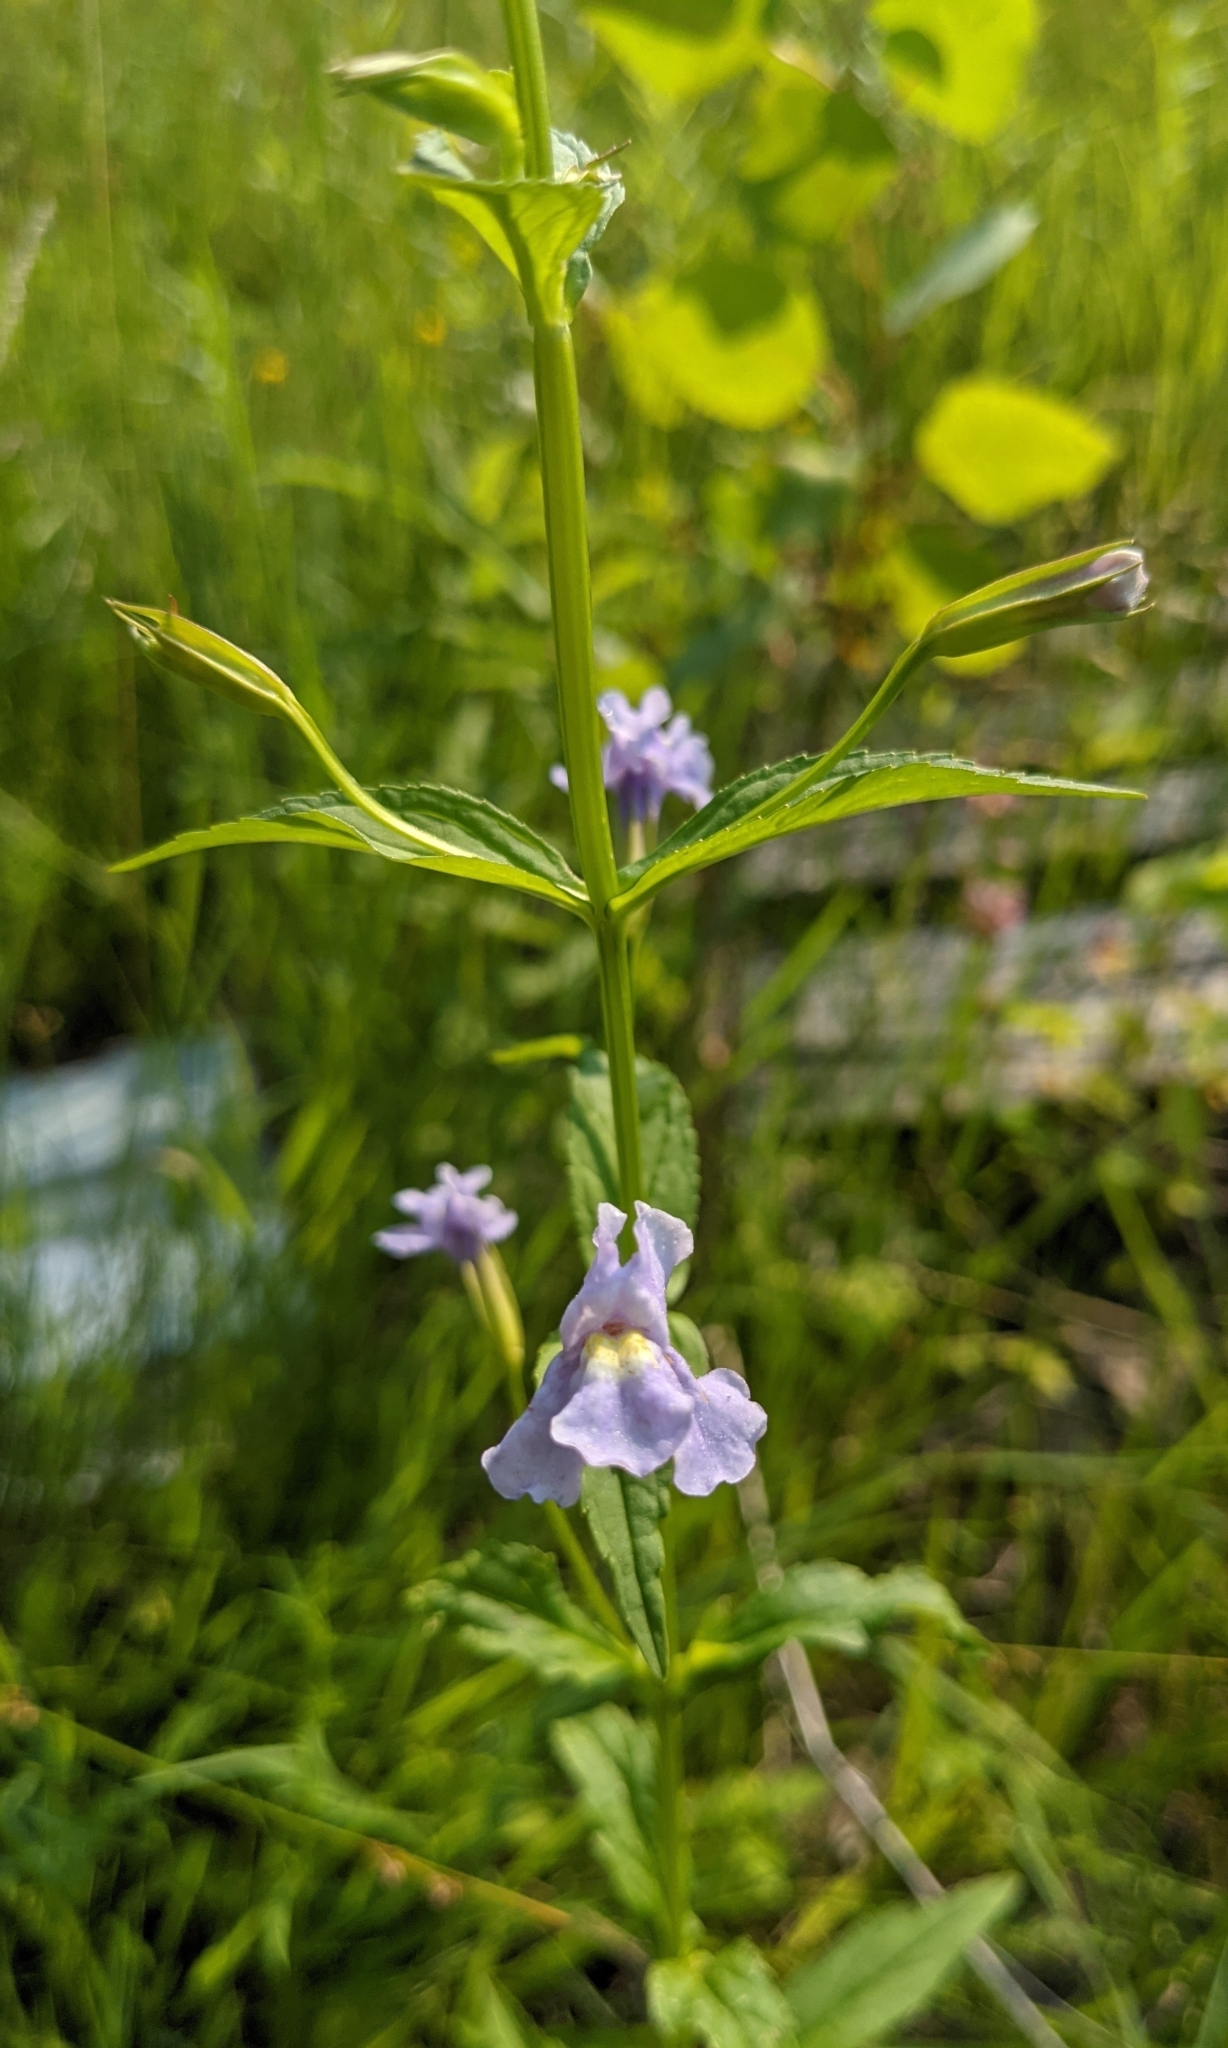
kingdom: Plantae
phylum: Tracheophyta
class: Magnoliopsida
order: Lamiales
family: Phrymaceae
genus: Mimulus
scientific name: Mimulus ringens
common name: Allegheny monkeyflower
